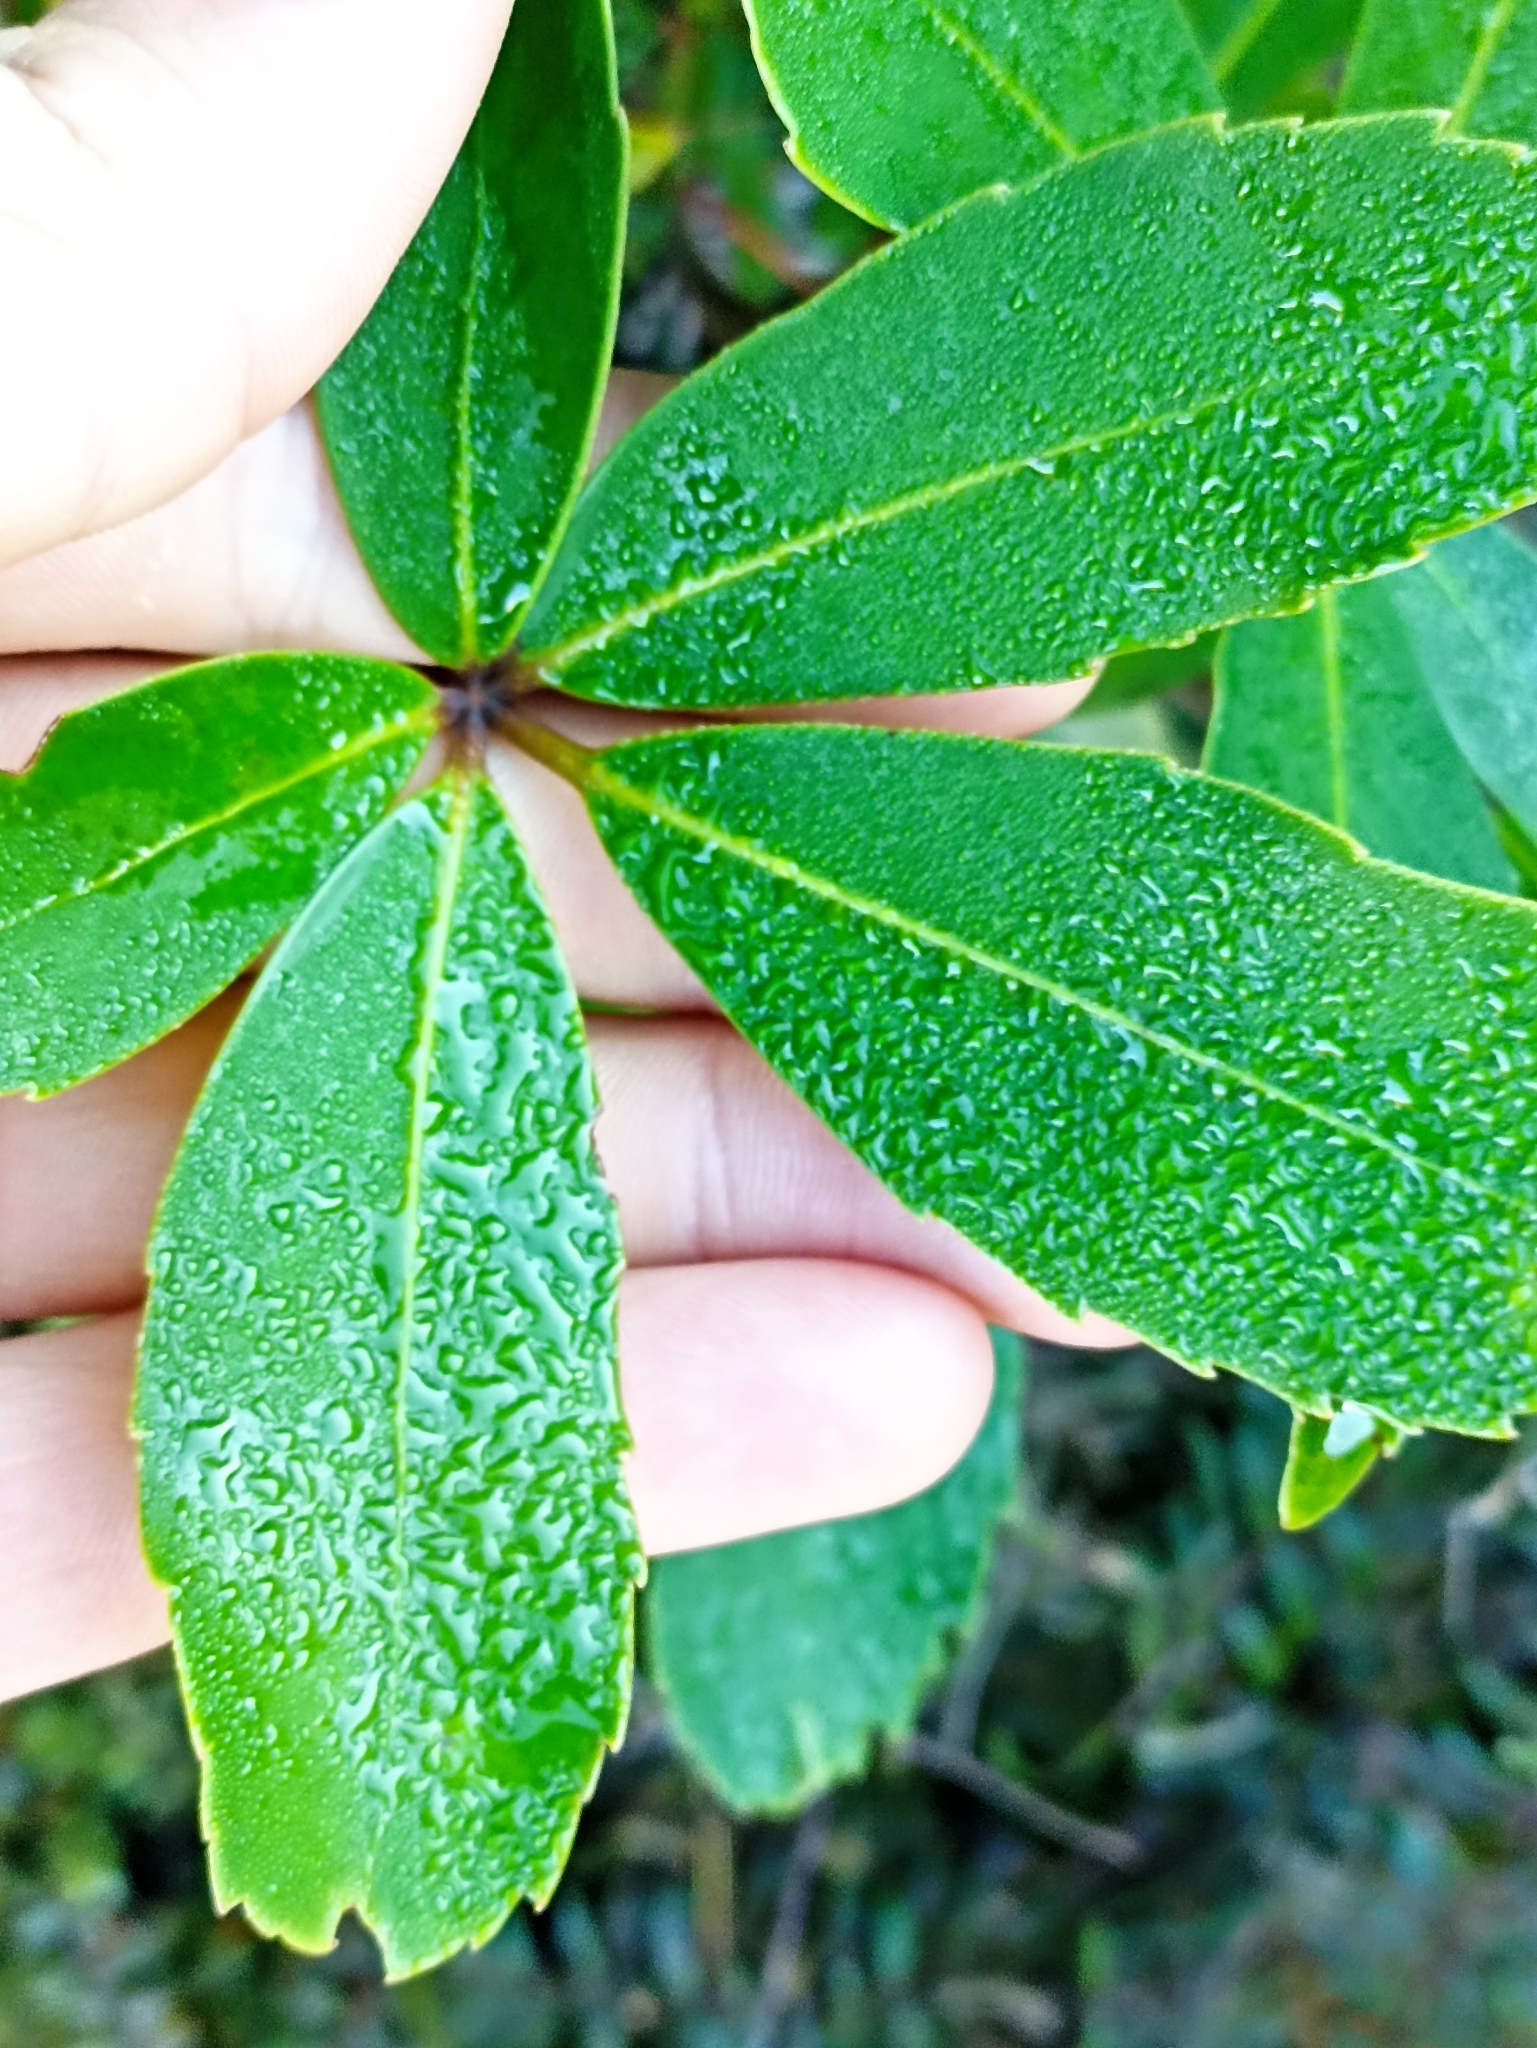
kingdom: Plantae
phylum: Tracheophyta
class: Magnoliopsida
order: Apiales
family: Araliaceae
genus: Neopanax
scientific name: Neopanax colensoi
